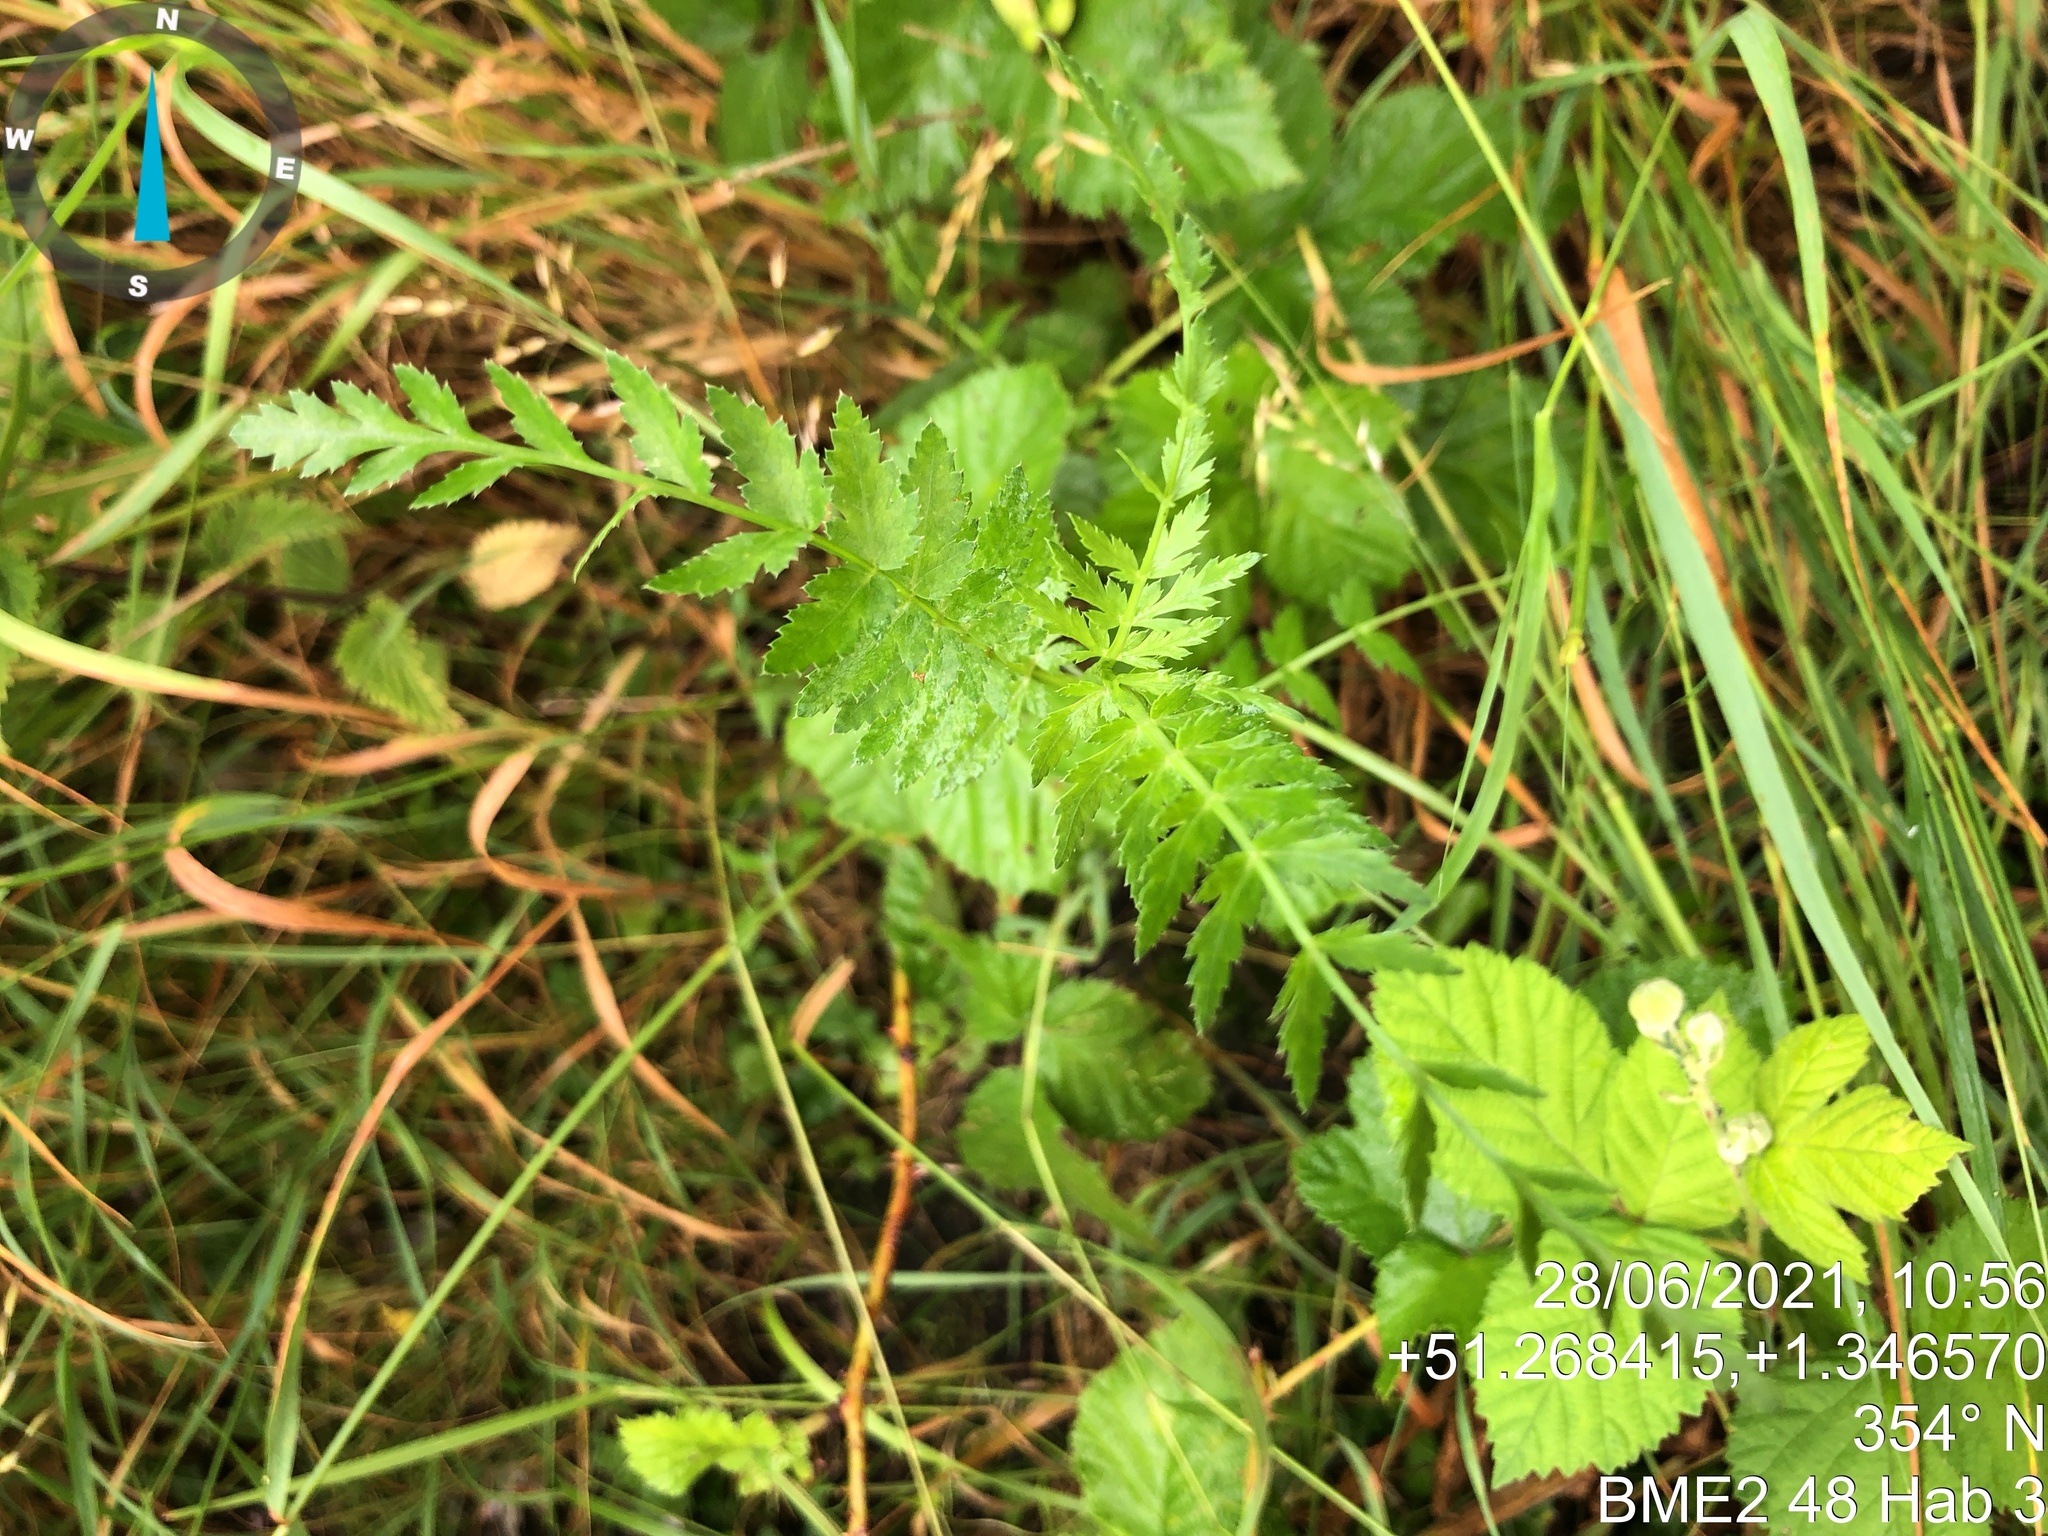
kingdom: Plantae
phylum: Tracheophyta
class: Magnoliopsida
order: Rosales
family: Rosaceae
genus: Filipendula
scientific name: Filipendula vulgaris
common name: Dropwort
